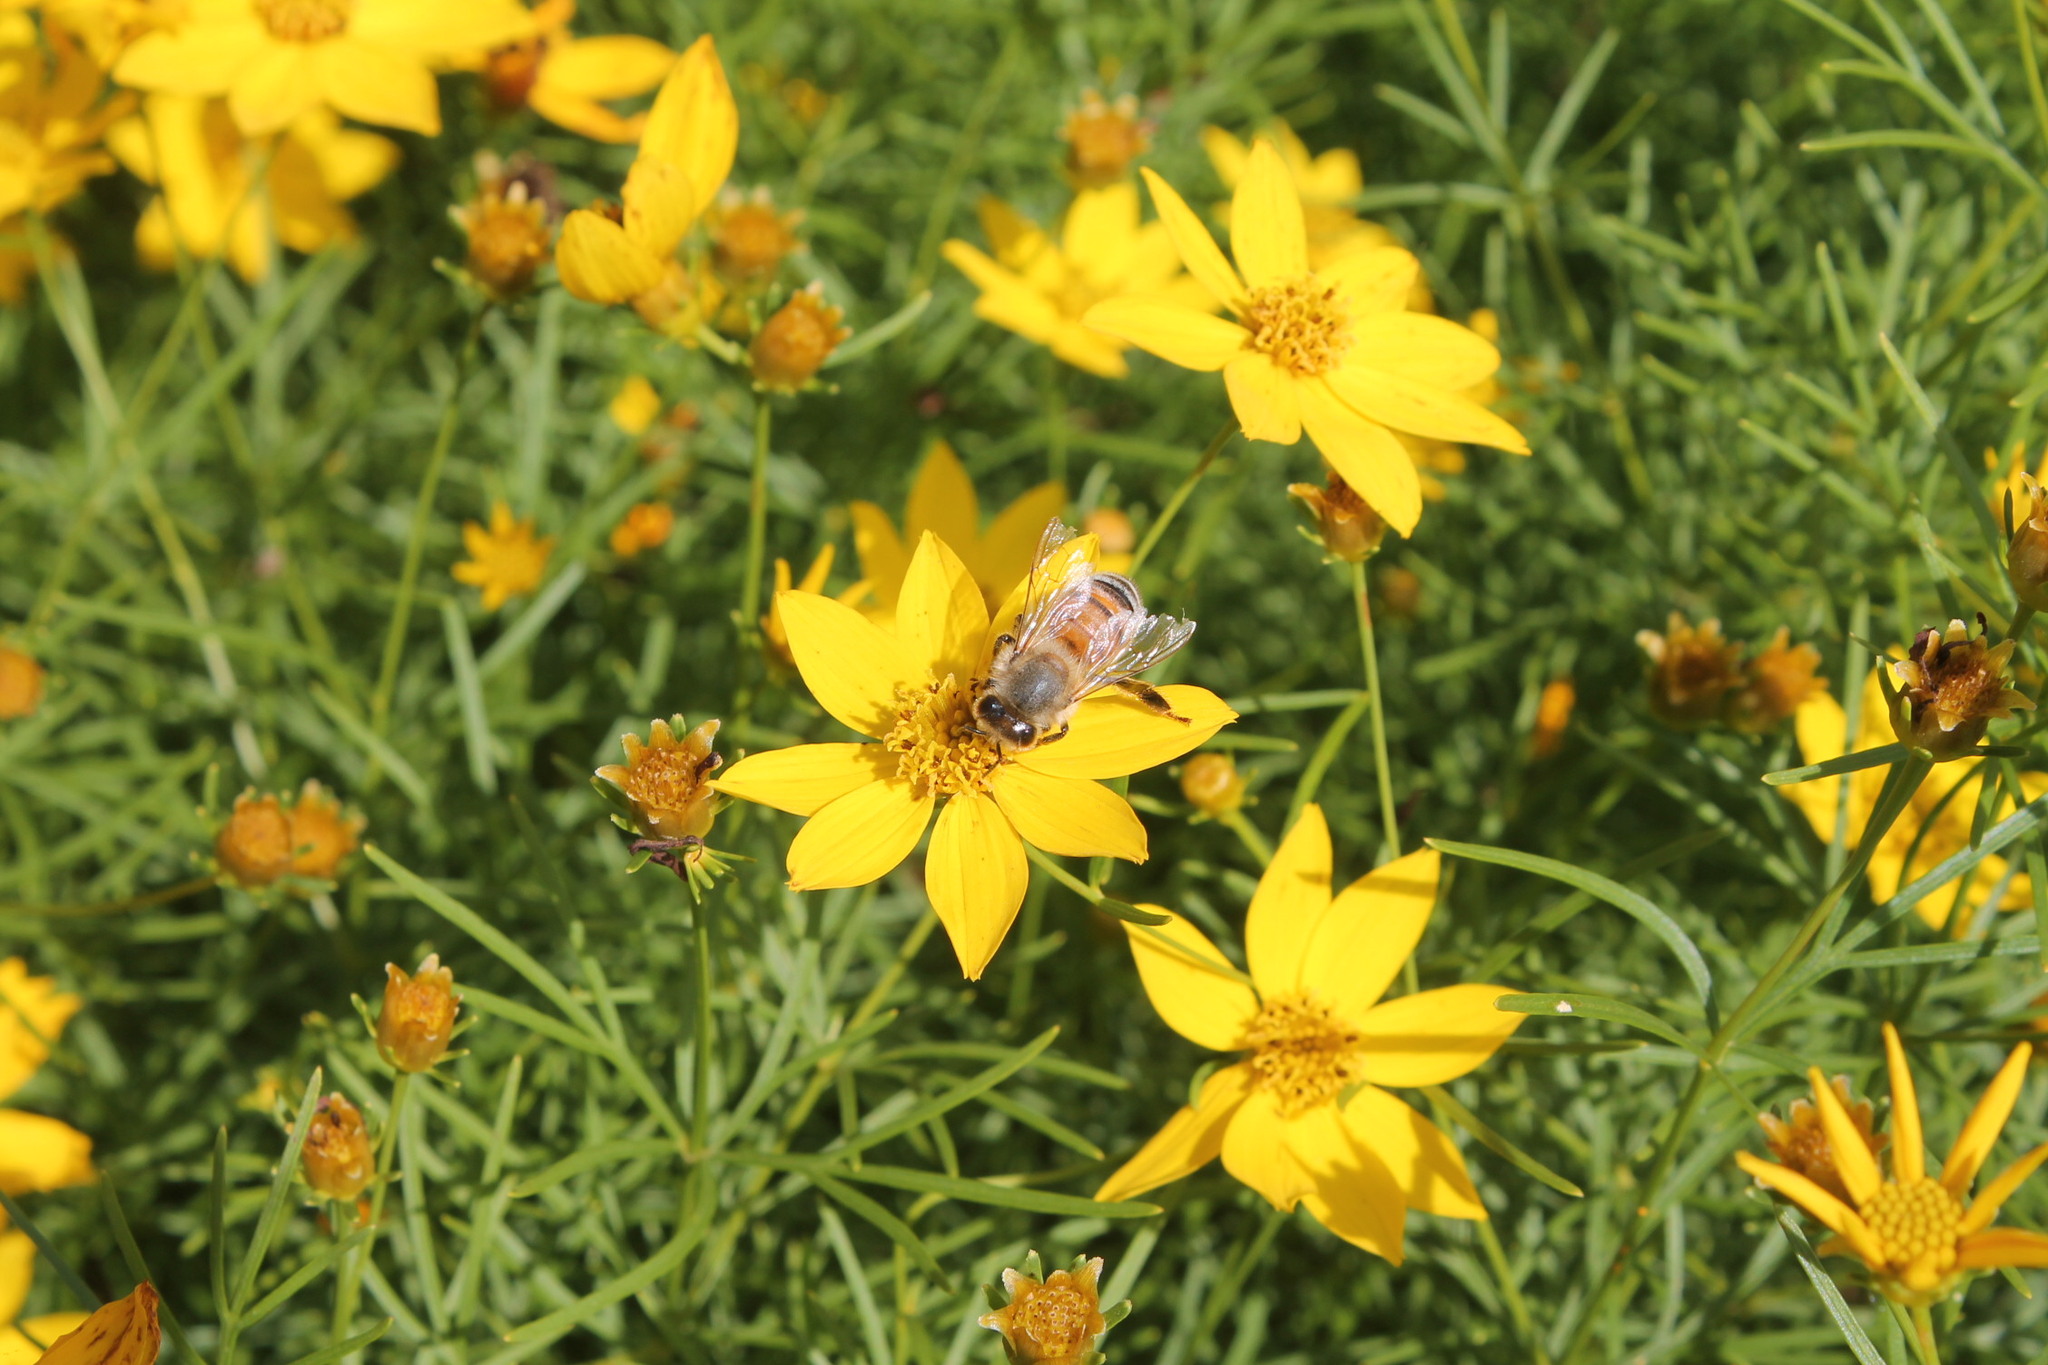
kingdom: Animalia
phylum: Arthropoda
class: Insecta
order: Hymenoptera
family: Apidae
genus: Apis
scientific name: Apis mellifera
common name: Honey bee
